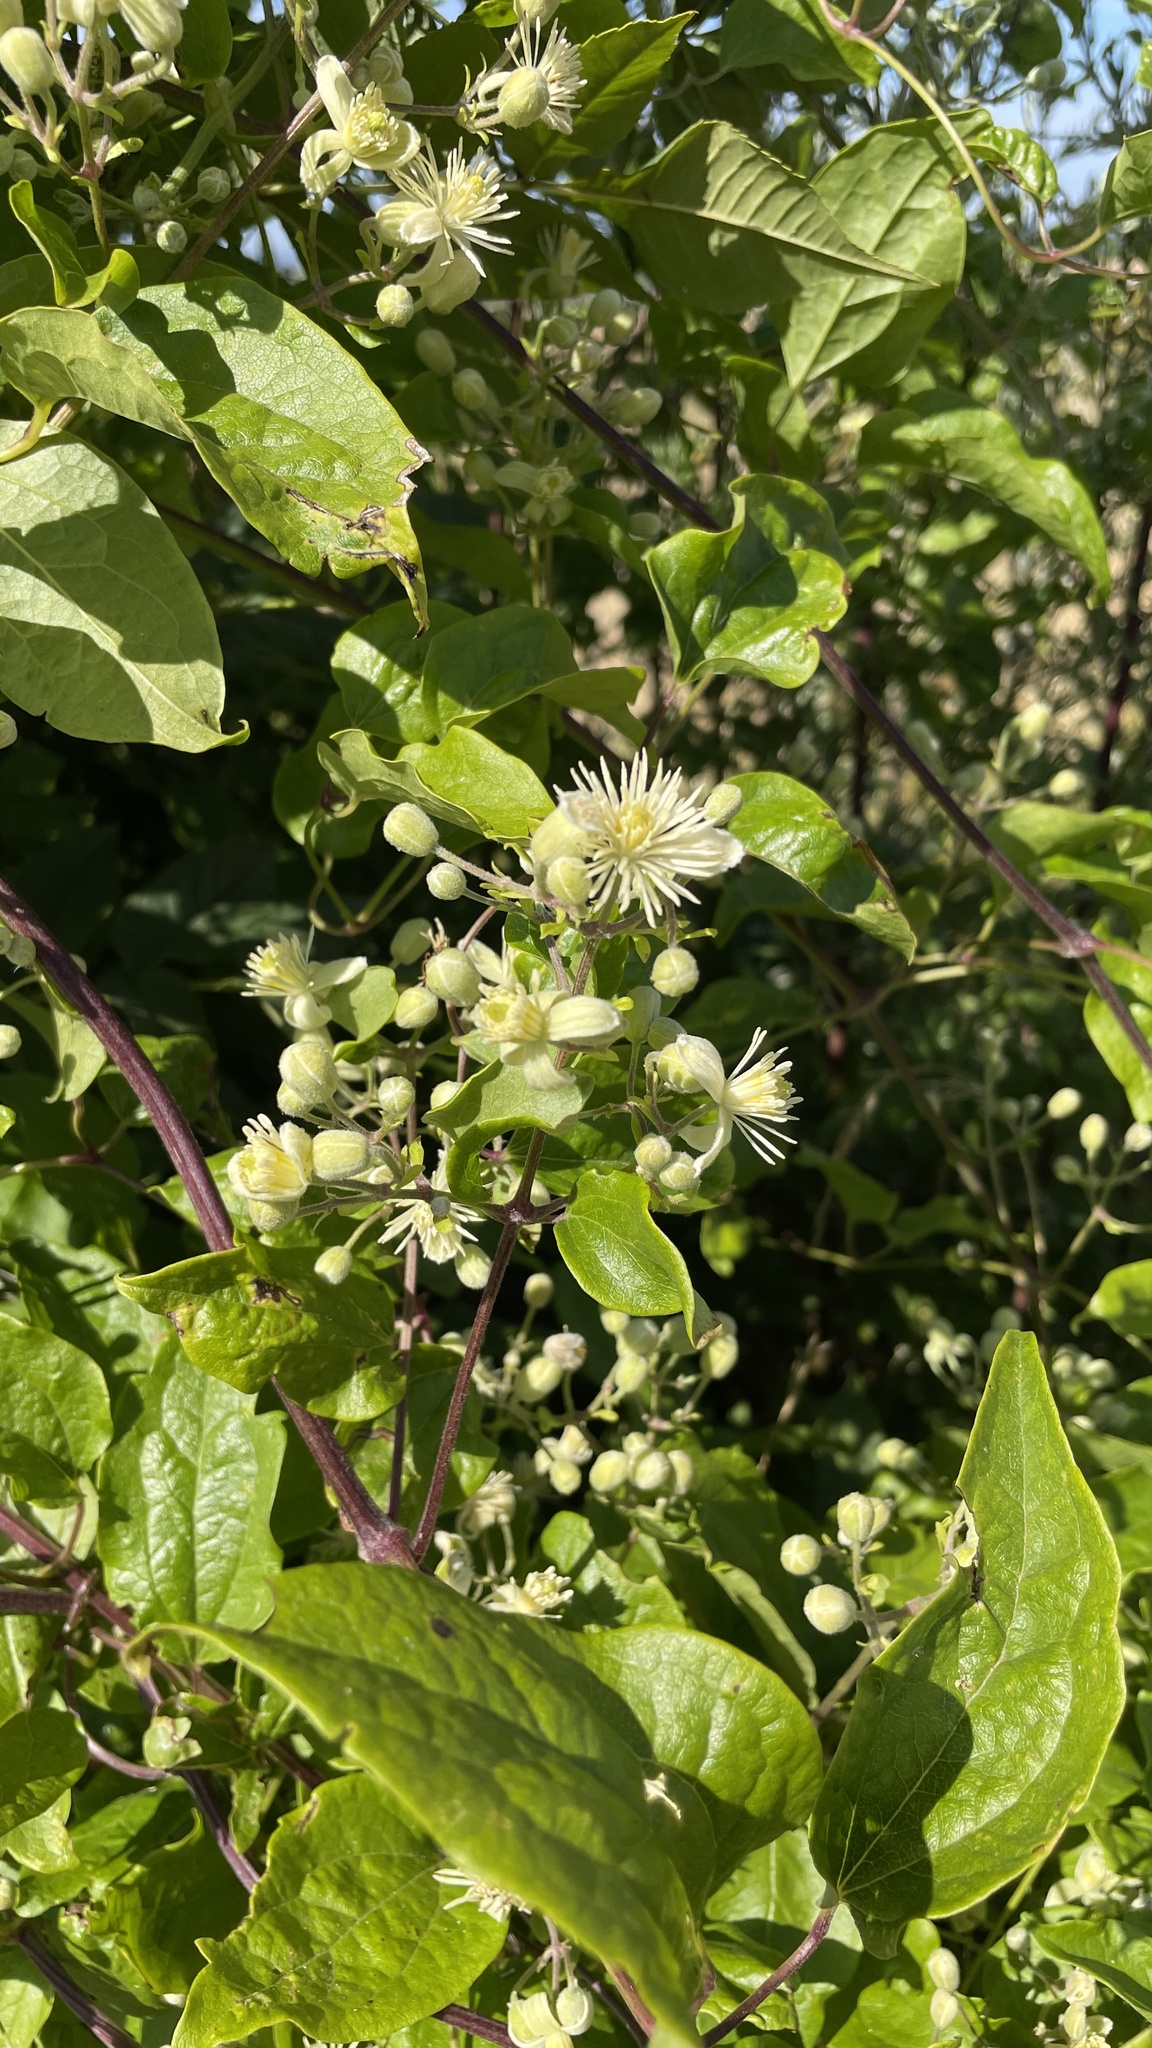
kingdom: Plantae
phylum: Tracheophyta
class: Magnoliopsida
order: Ranunculales
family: Ranunculaceae
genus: Clematis
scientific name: Clematis vitalba
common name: Evergreen clematis
